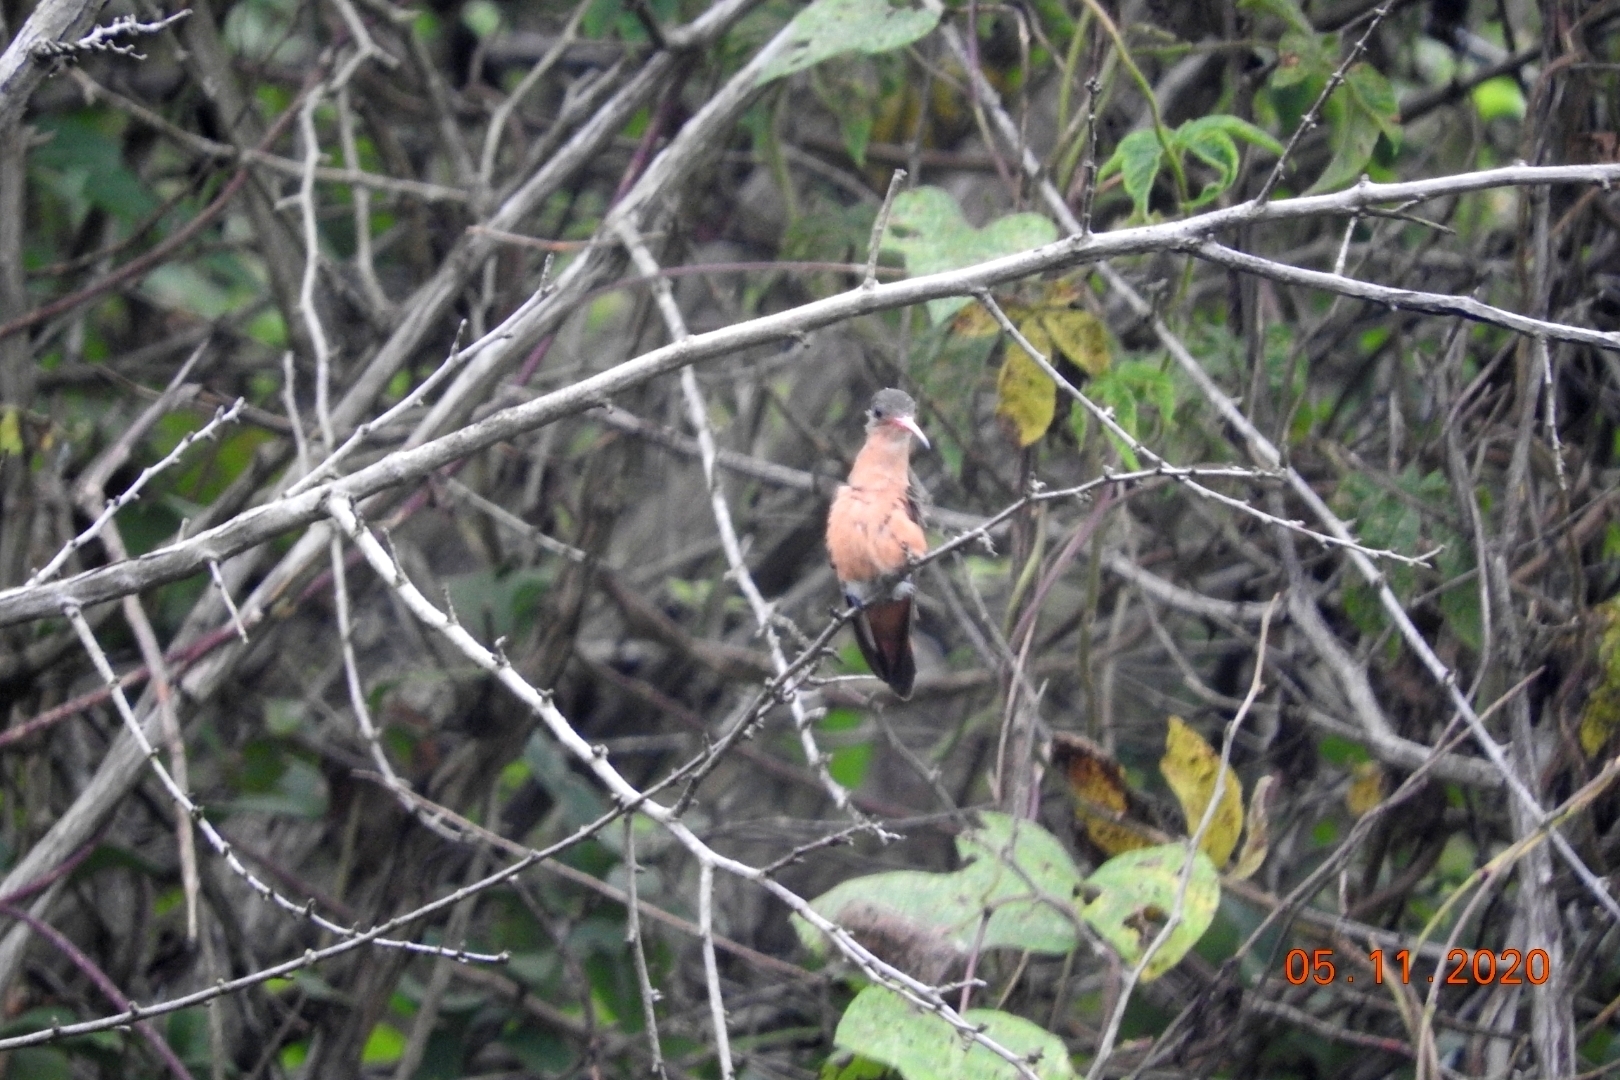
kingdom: Animalia
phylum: Chordata
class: Aves
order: Apodiformes
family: Trochilidae
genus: Amazilia
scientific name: Amazilia rutila
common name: Cinnamon hummingbird
